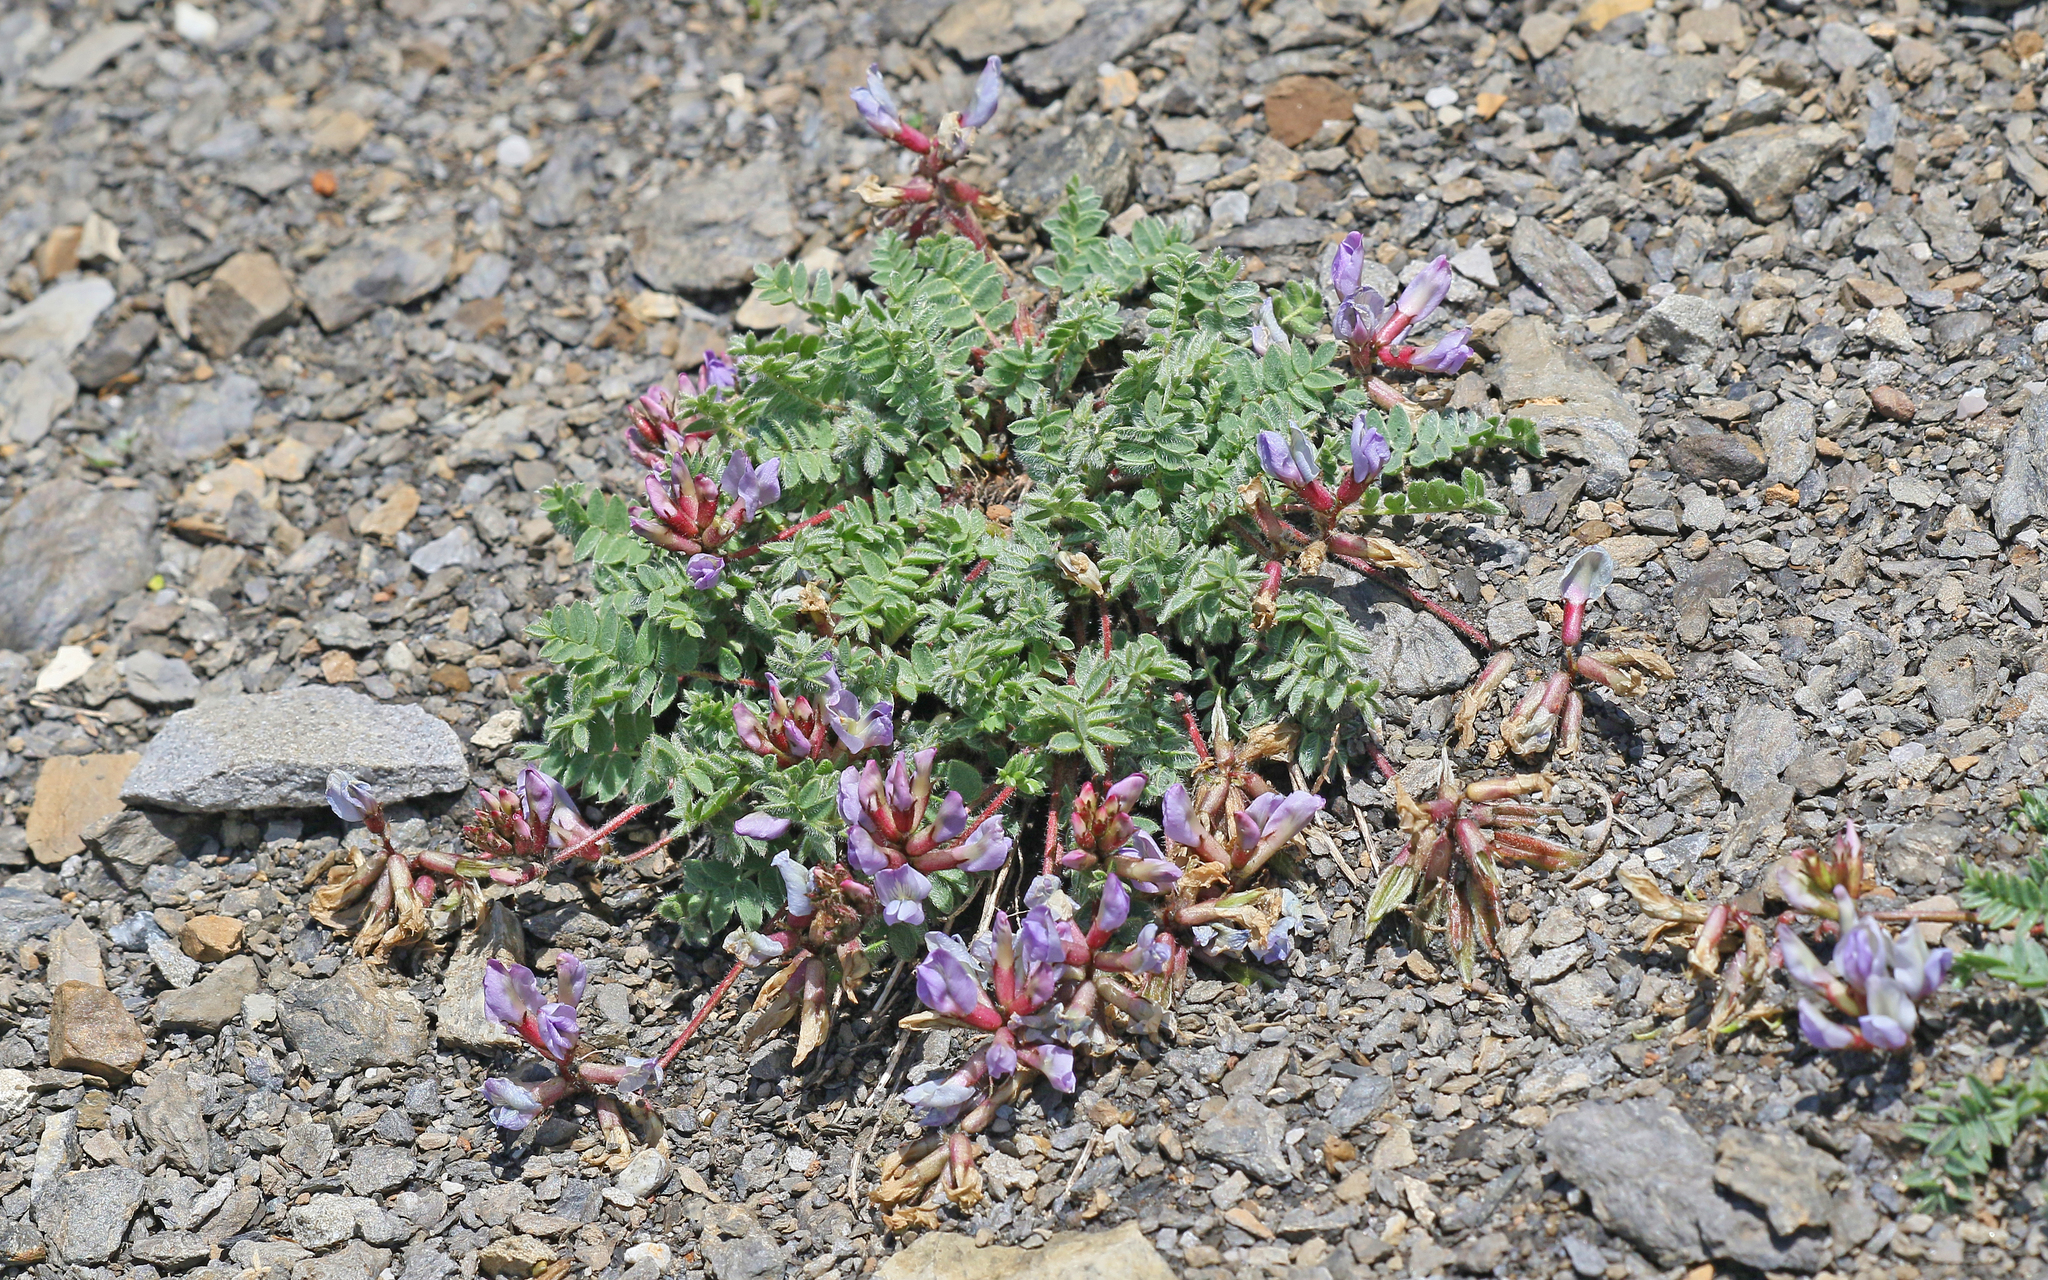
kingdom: Plantae
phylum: Tracheophyta
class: Magnoliopsida
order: Fabales
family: Fabaceae
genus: Oxytropis
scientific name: Oxytropis helvetica
